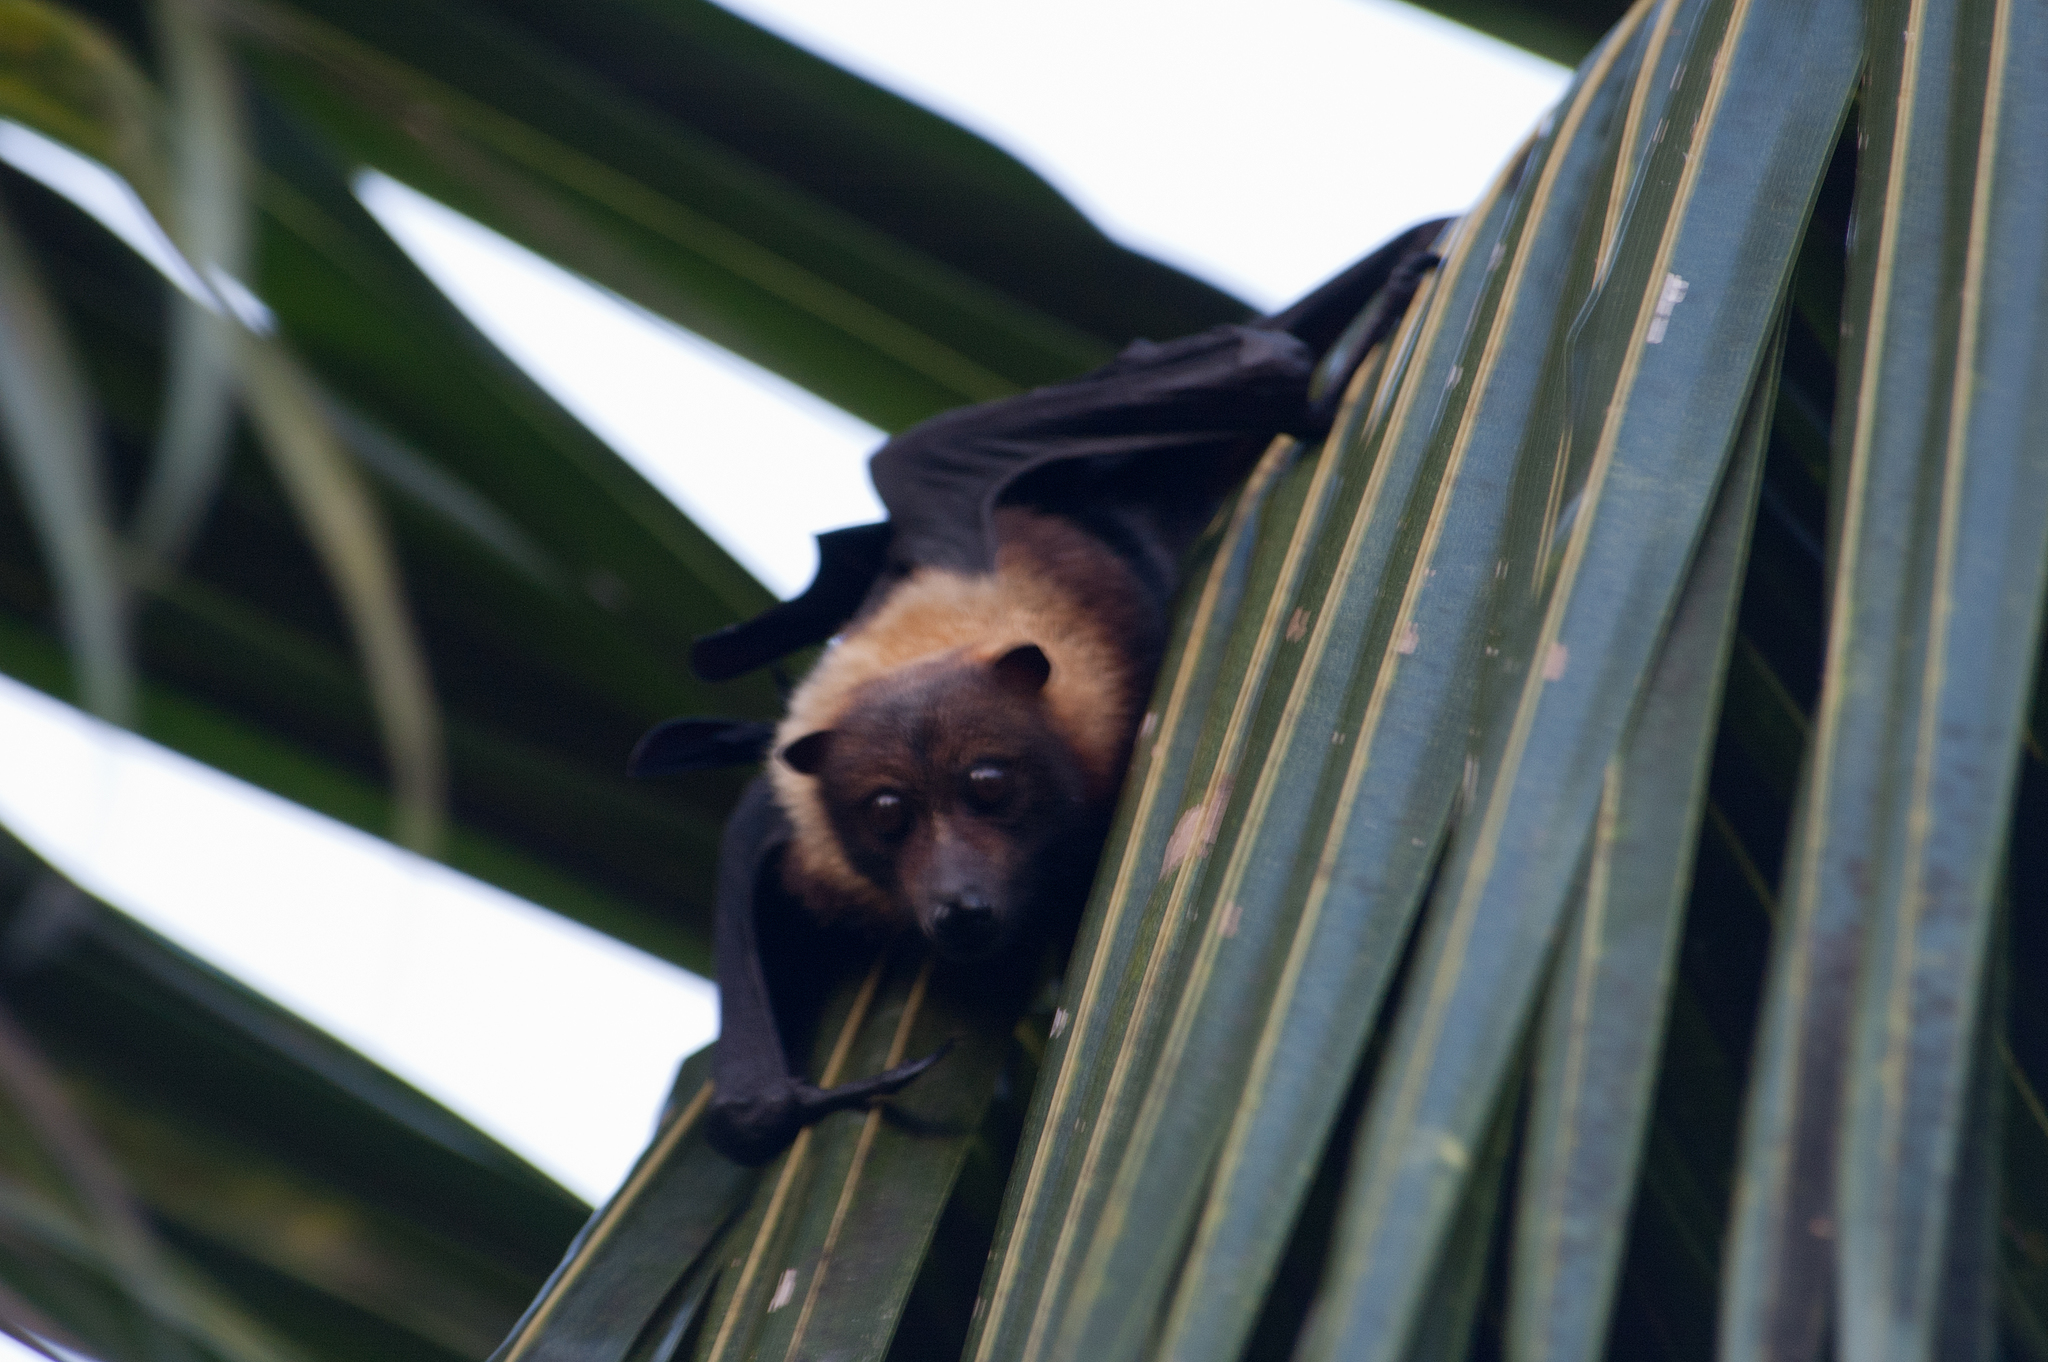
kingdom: Animalia
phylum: Chordata
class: Mammalia
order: Chiroptera
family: Pteropodidae
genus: Pteropus
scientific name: Pteropus tonganus
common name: Pacific flying fox
